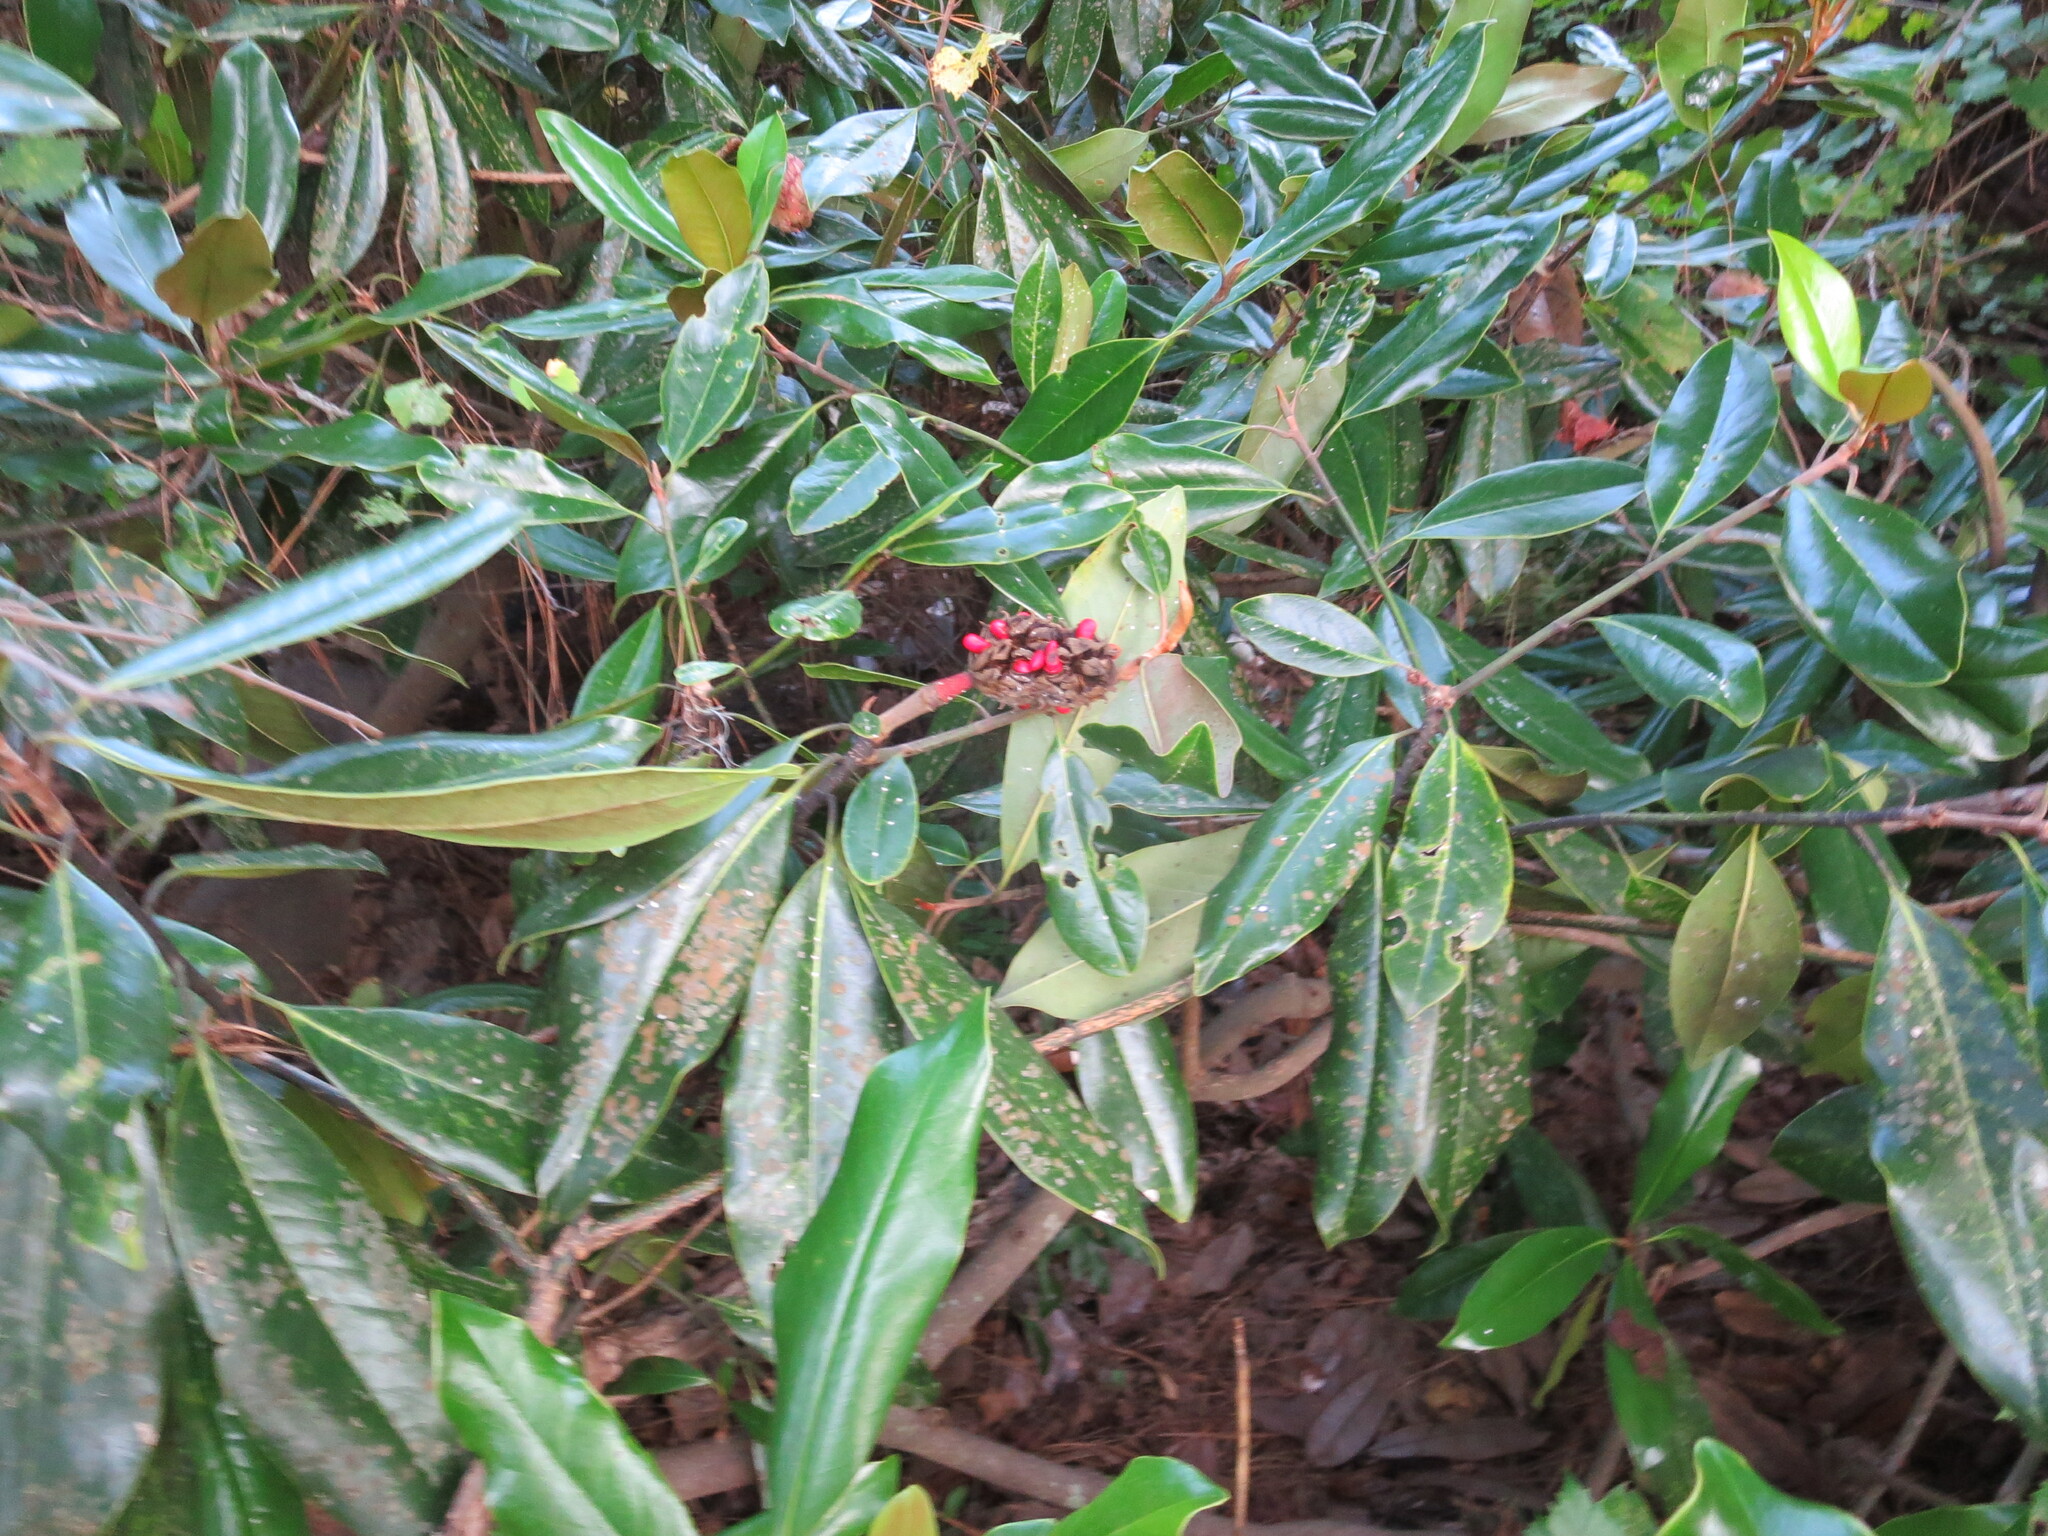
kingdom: Plantae
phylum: Tracheophyta
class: Magnoliopsida
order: Magnoliales
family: Magnoliaceae
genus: Magnolia
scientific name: Magnolia grandiflora
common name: Southern magnolia
